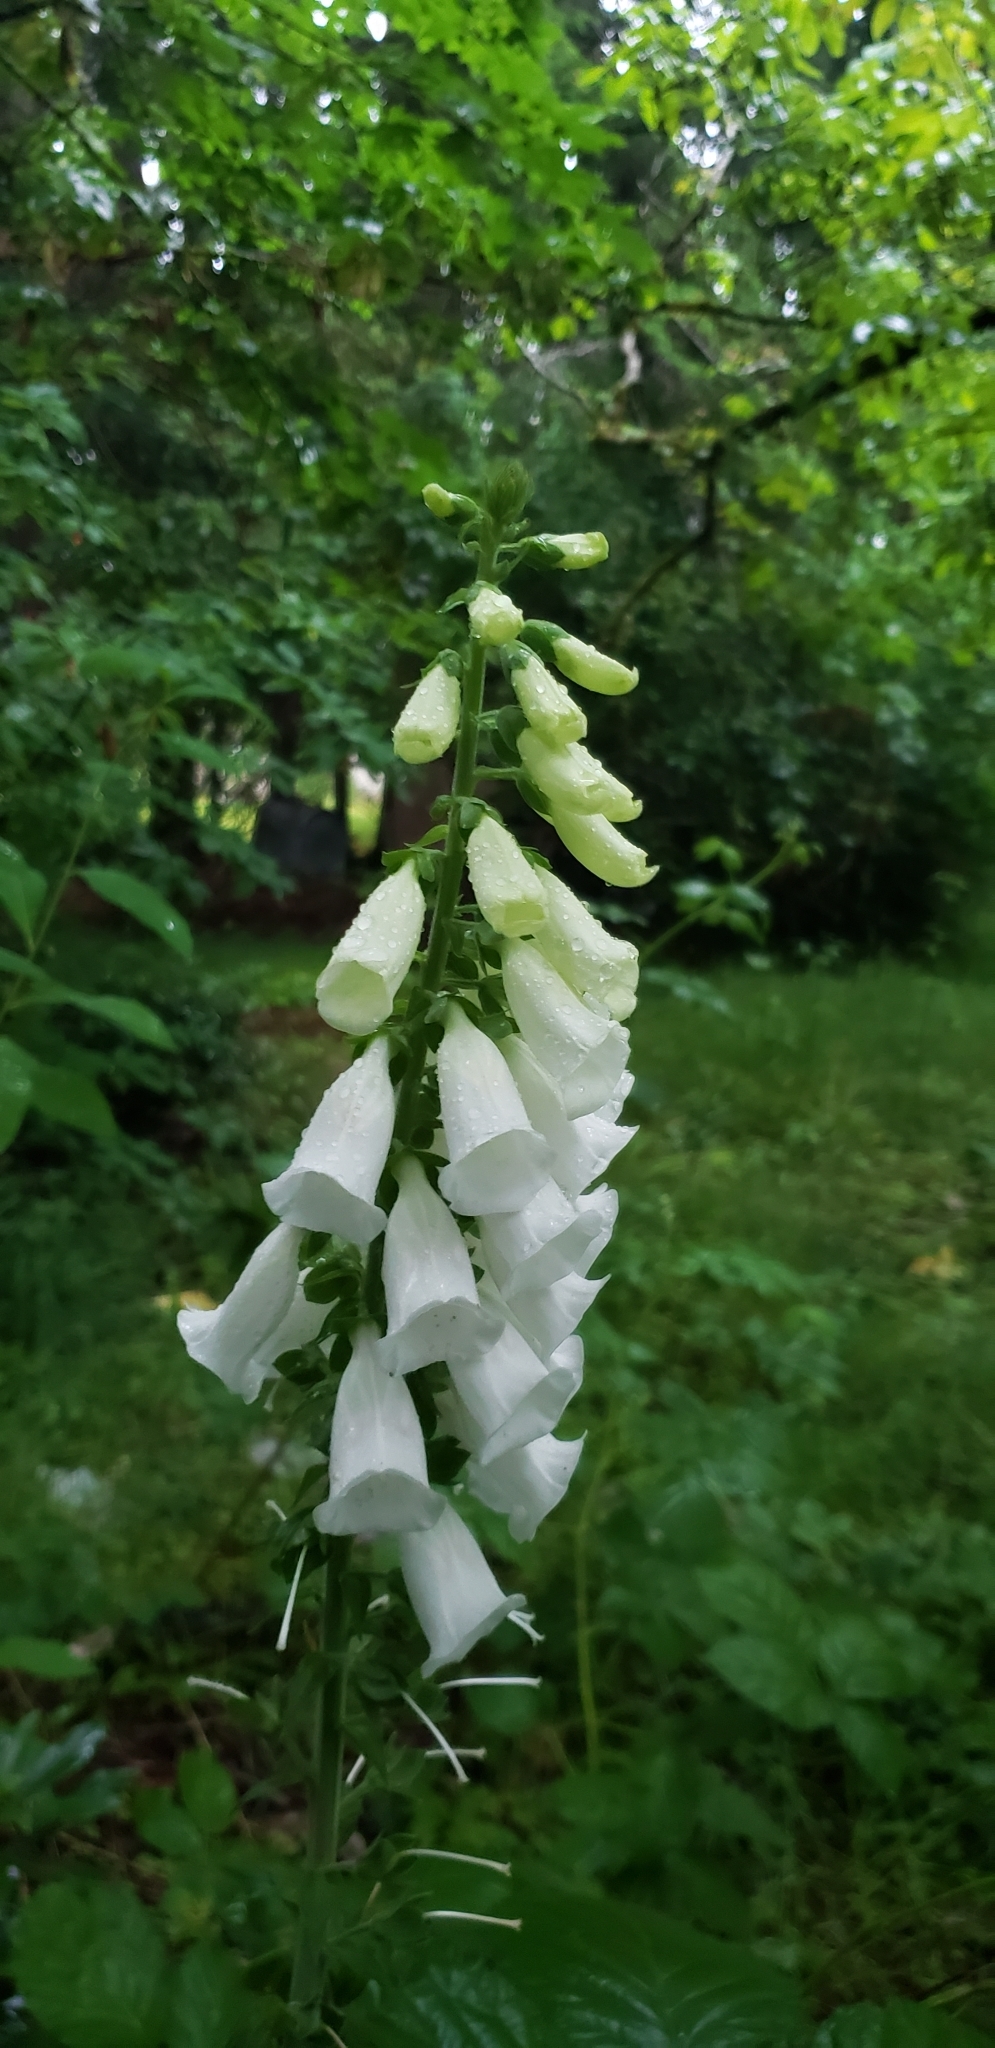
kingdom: Plantae
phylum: Tracheophyta
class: Magnoliopsida
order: Lamiales
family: Plantaginaceae
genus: Digitalis
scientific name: Digitalis purpurea
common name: Foxglove
